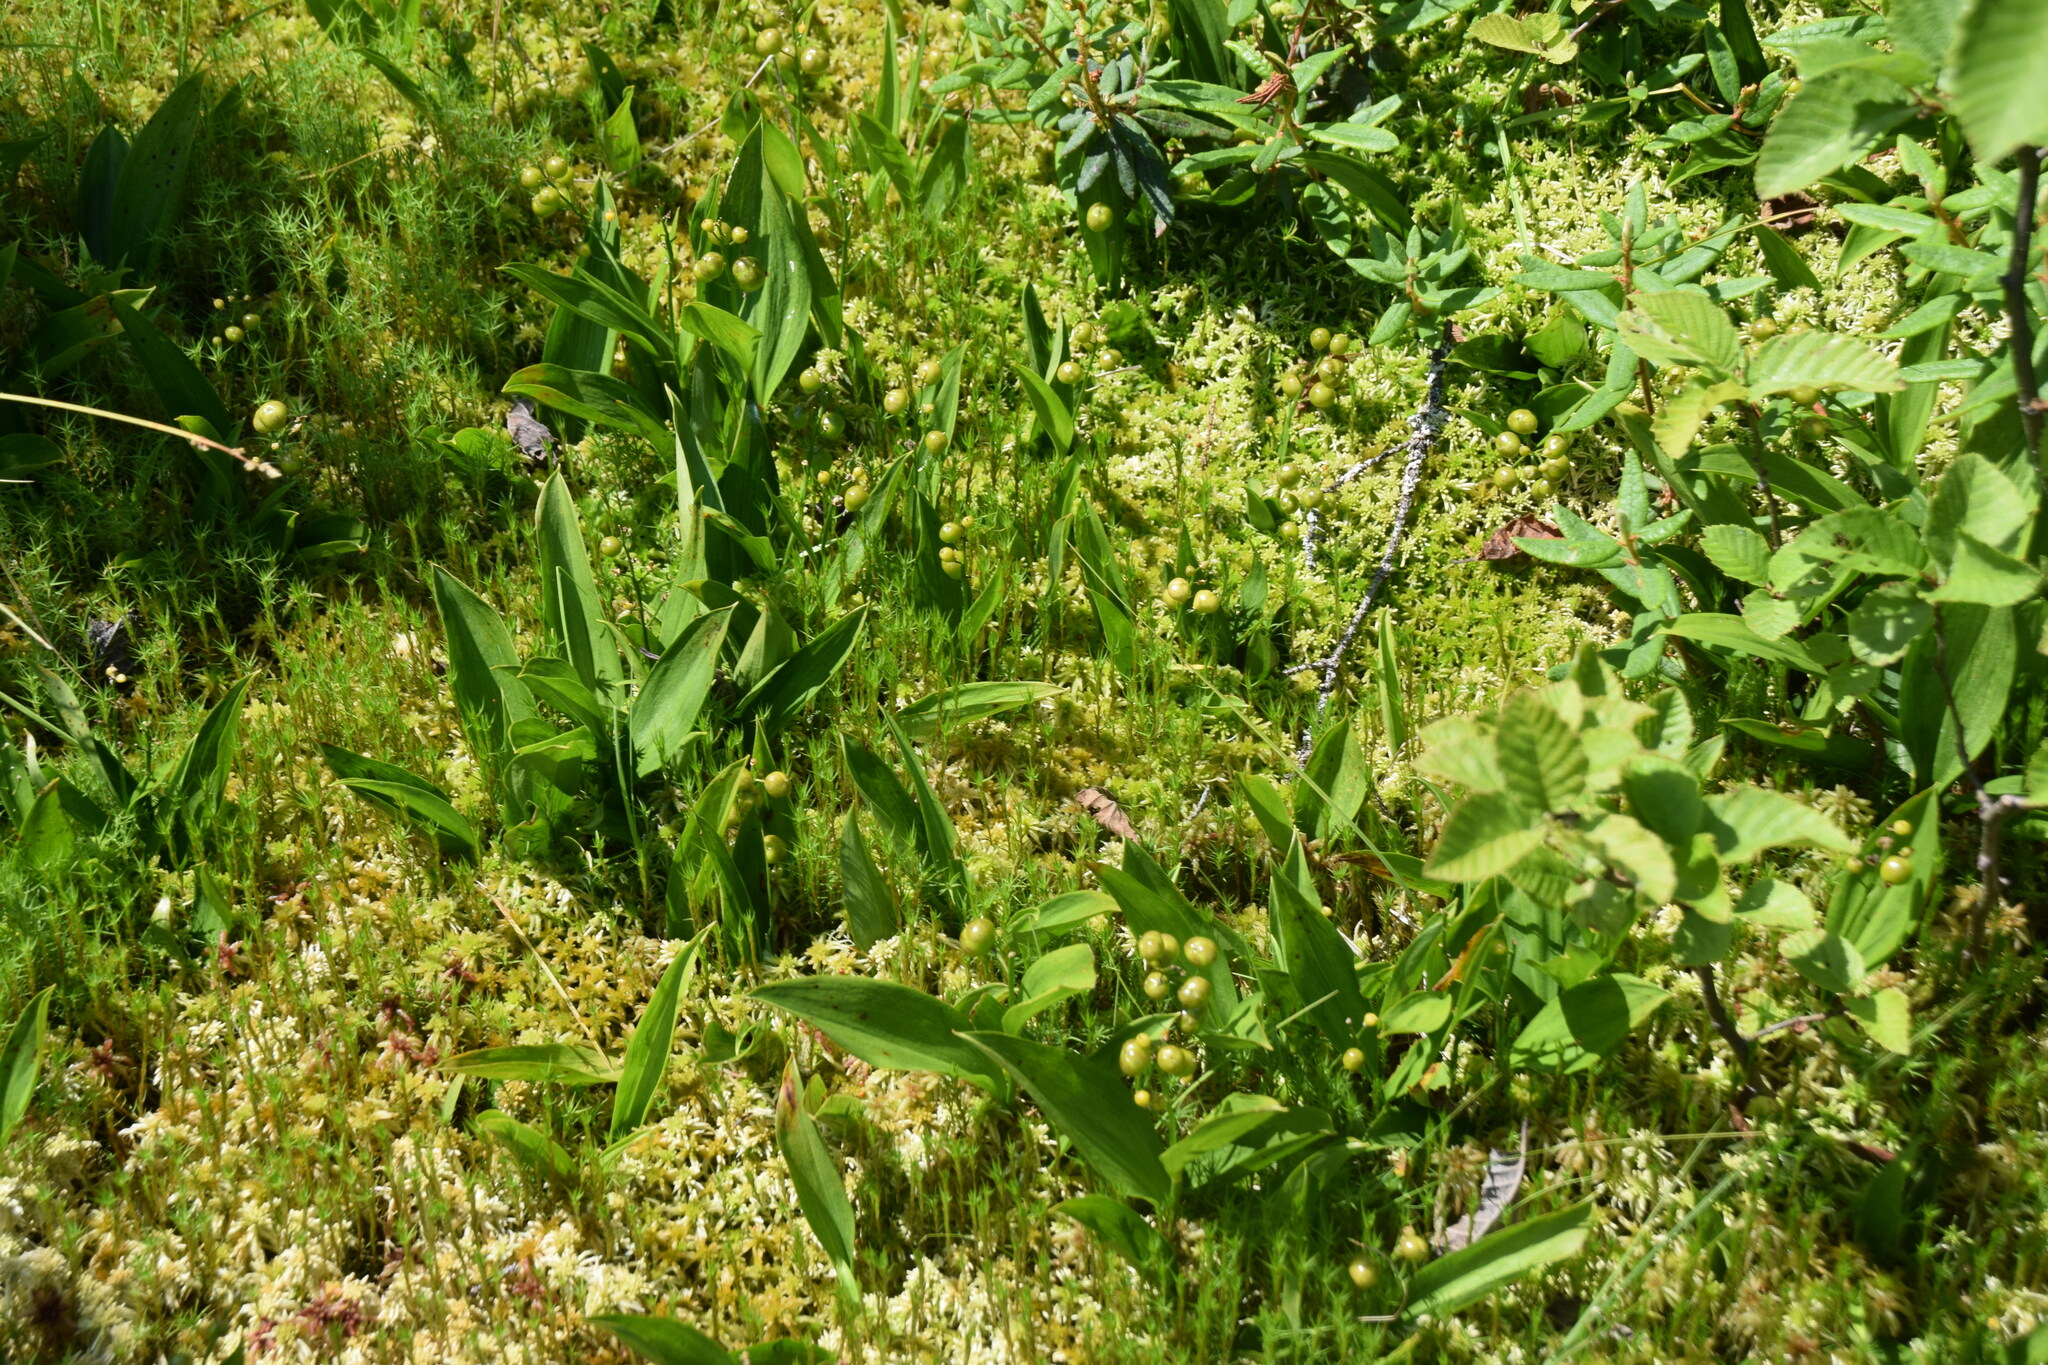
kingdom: Plantae
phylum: Tracheophyta
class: Liliopsida
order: Asparagales
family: Asparagaceae
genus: Maianthemum
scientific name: Maianthemum trifolium
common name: Swamp false solomon's seal
